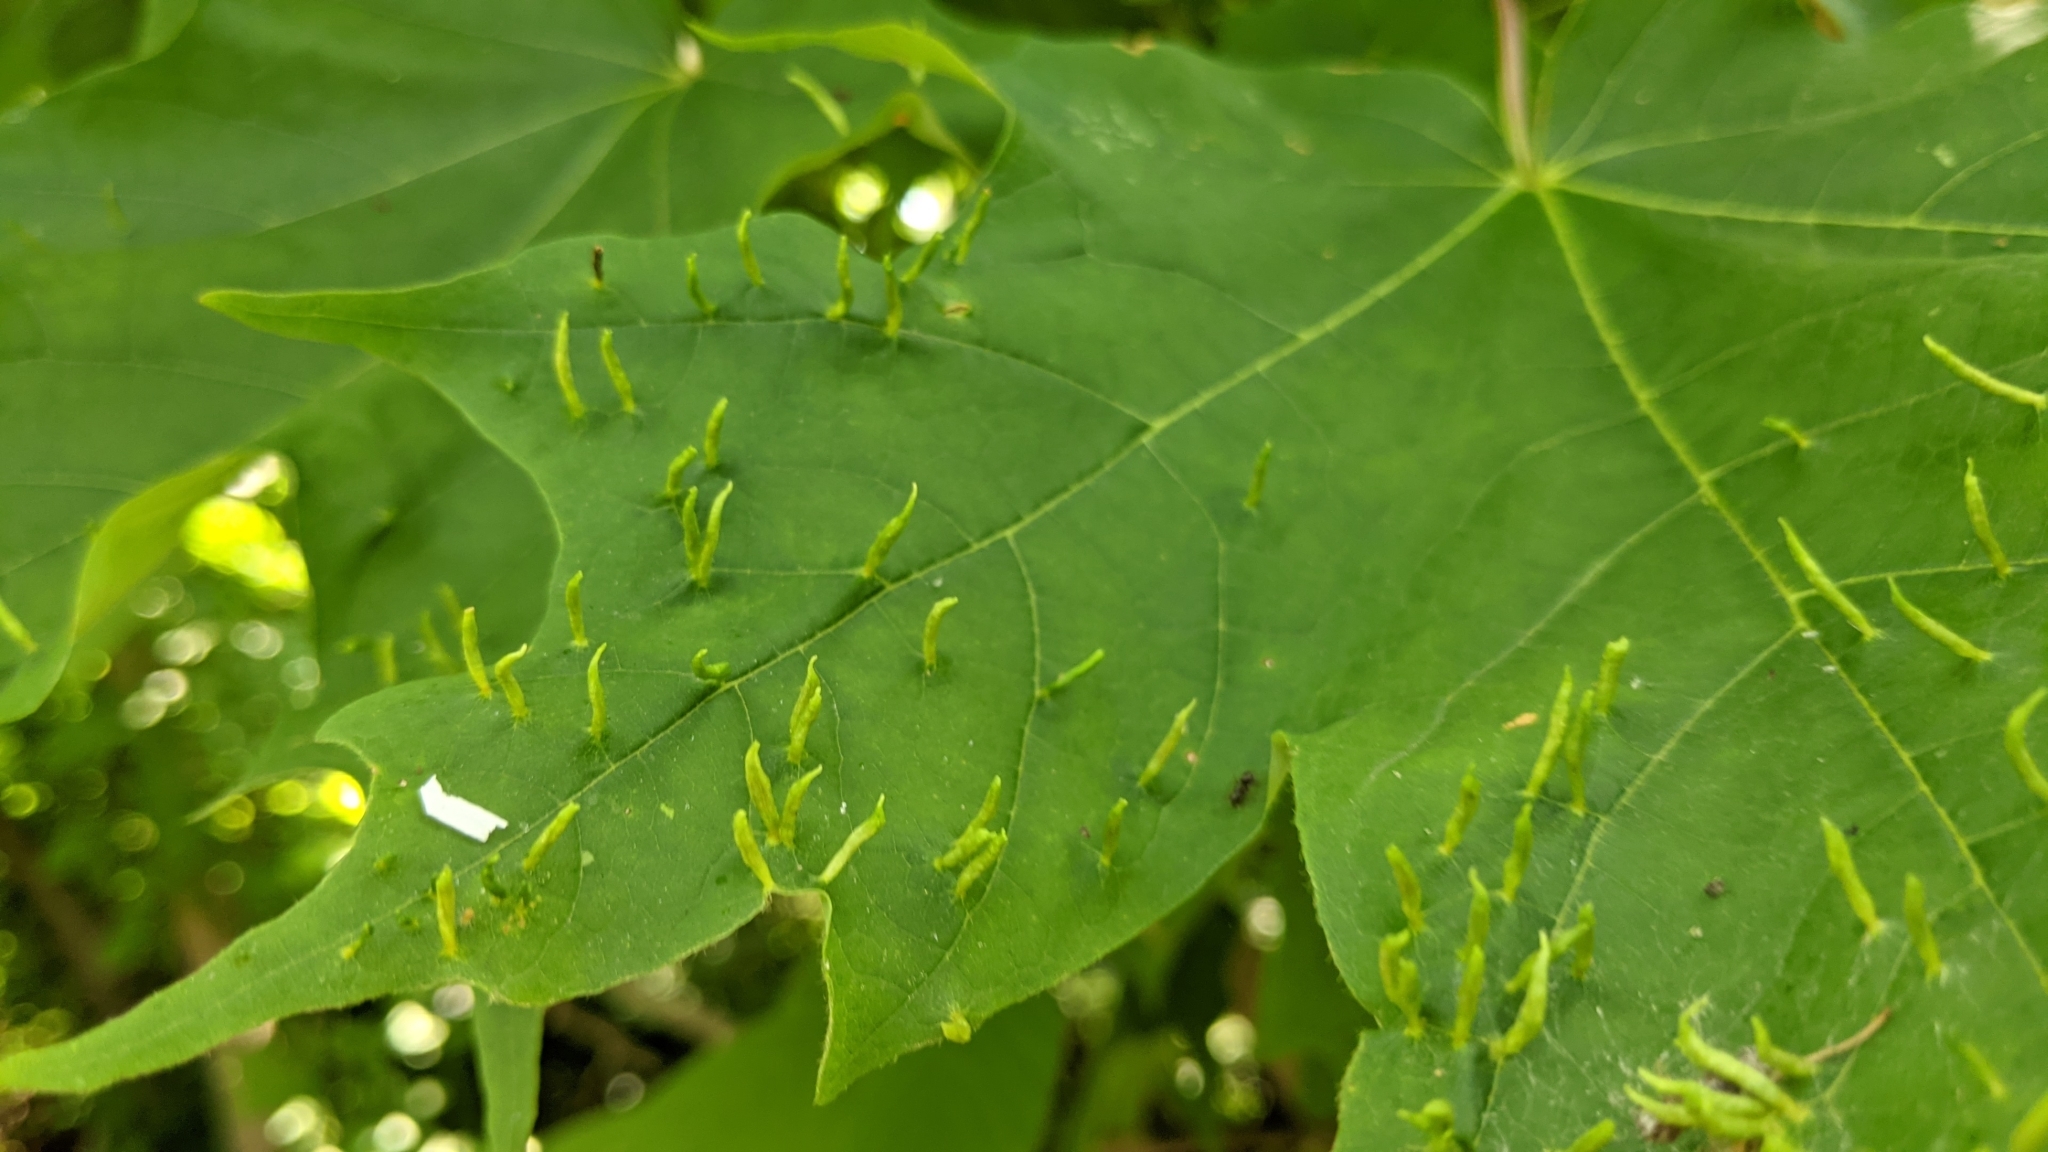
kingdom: Animalia
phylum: Arthropoda
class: Arachnida
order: Trombidiformes
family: Eriophyidae
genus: Vasates
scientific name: Vasates aceriscrumena
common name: Maple spindle gall mite
